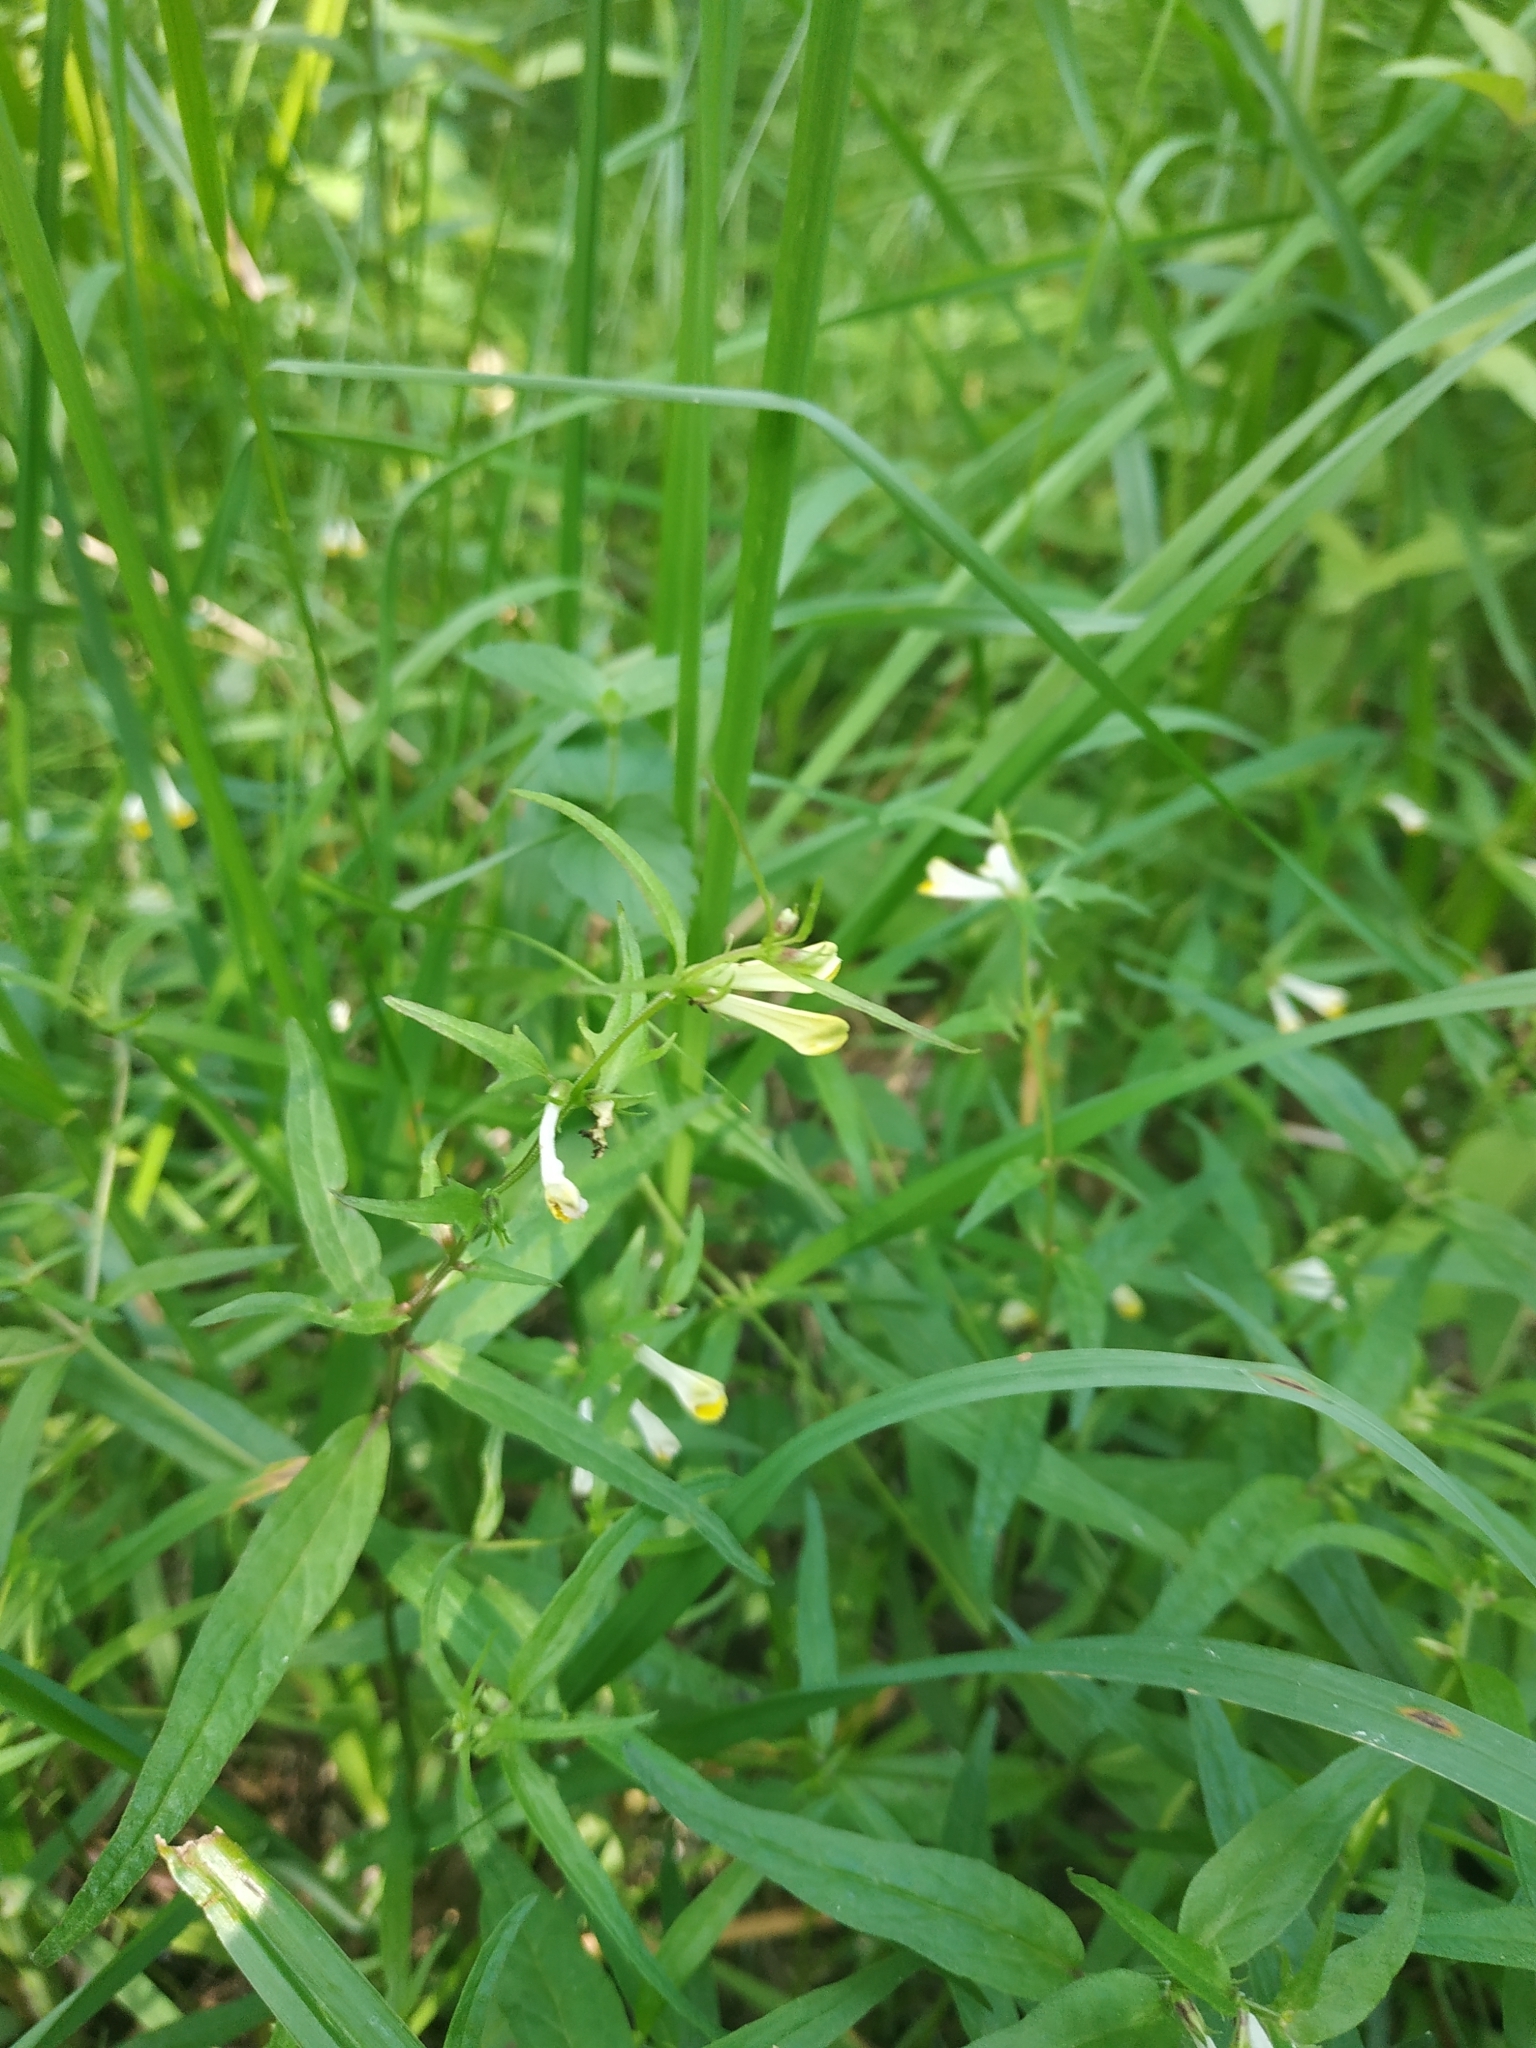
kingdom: Plantae
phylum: Tracheophyta
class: Magnoliopsida
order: Lamiales
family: Orobanchaceae
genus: Melampyrum
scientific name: Melampyrum pratense
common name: Common cow-wheat
